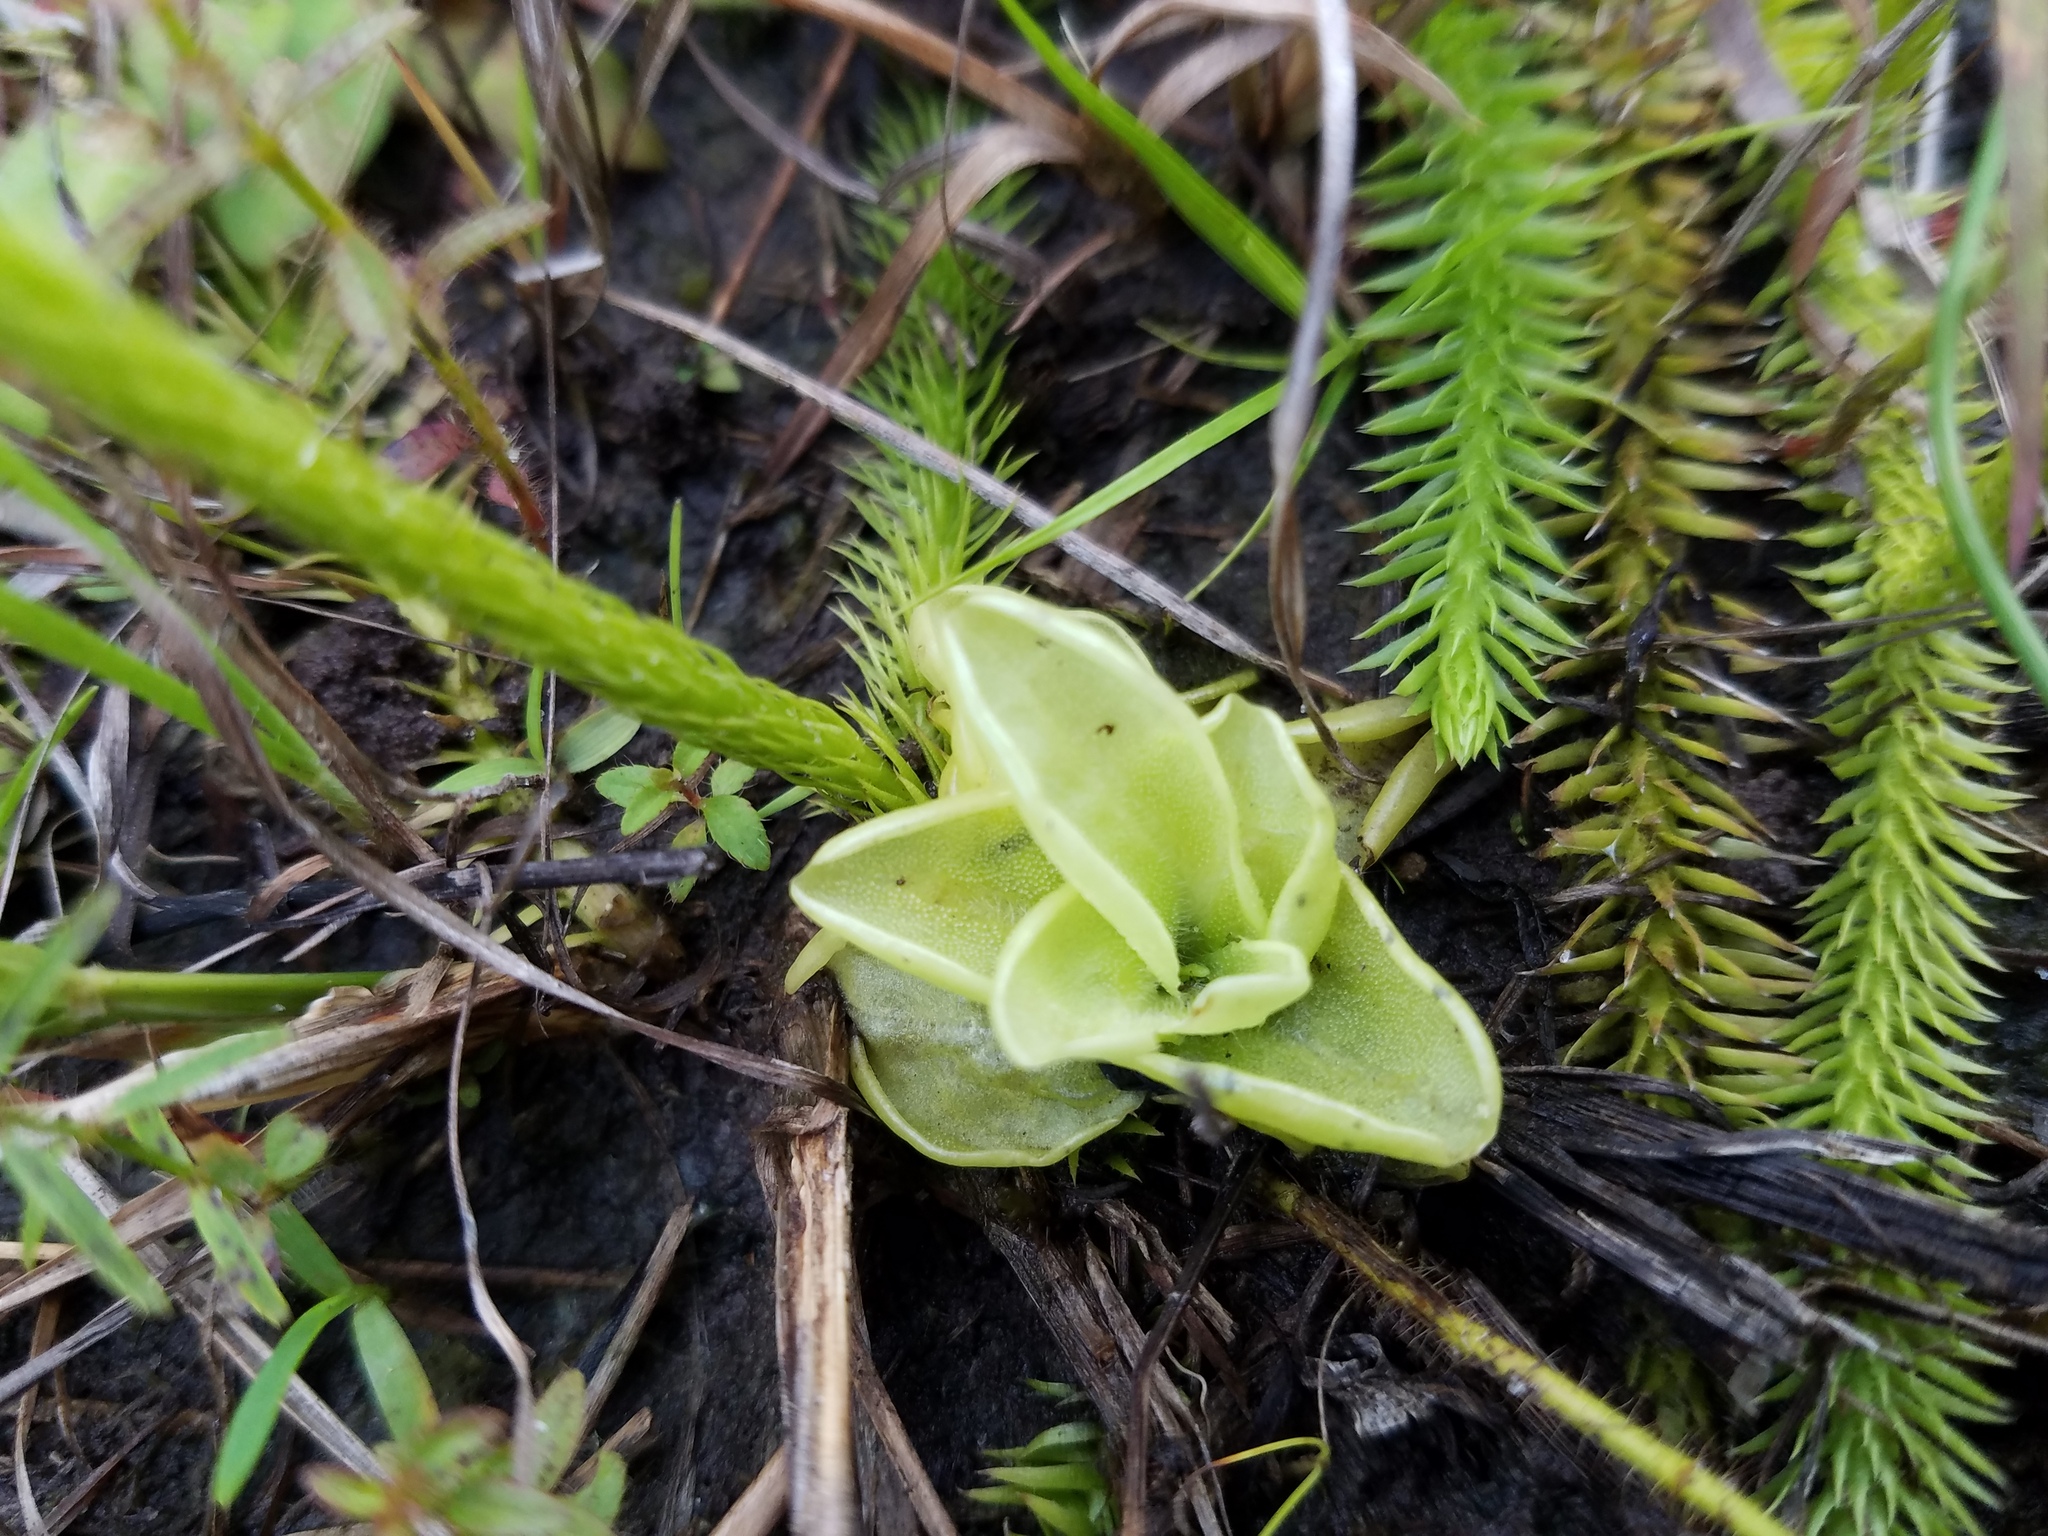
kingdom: Plantae
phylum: Tracheophyta
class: Magnoliopsida
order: Lamiales
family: Lentibulariaceae
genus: Pinguicula
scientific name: Pinguicula pumila
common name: Small butterwort
